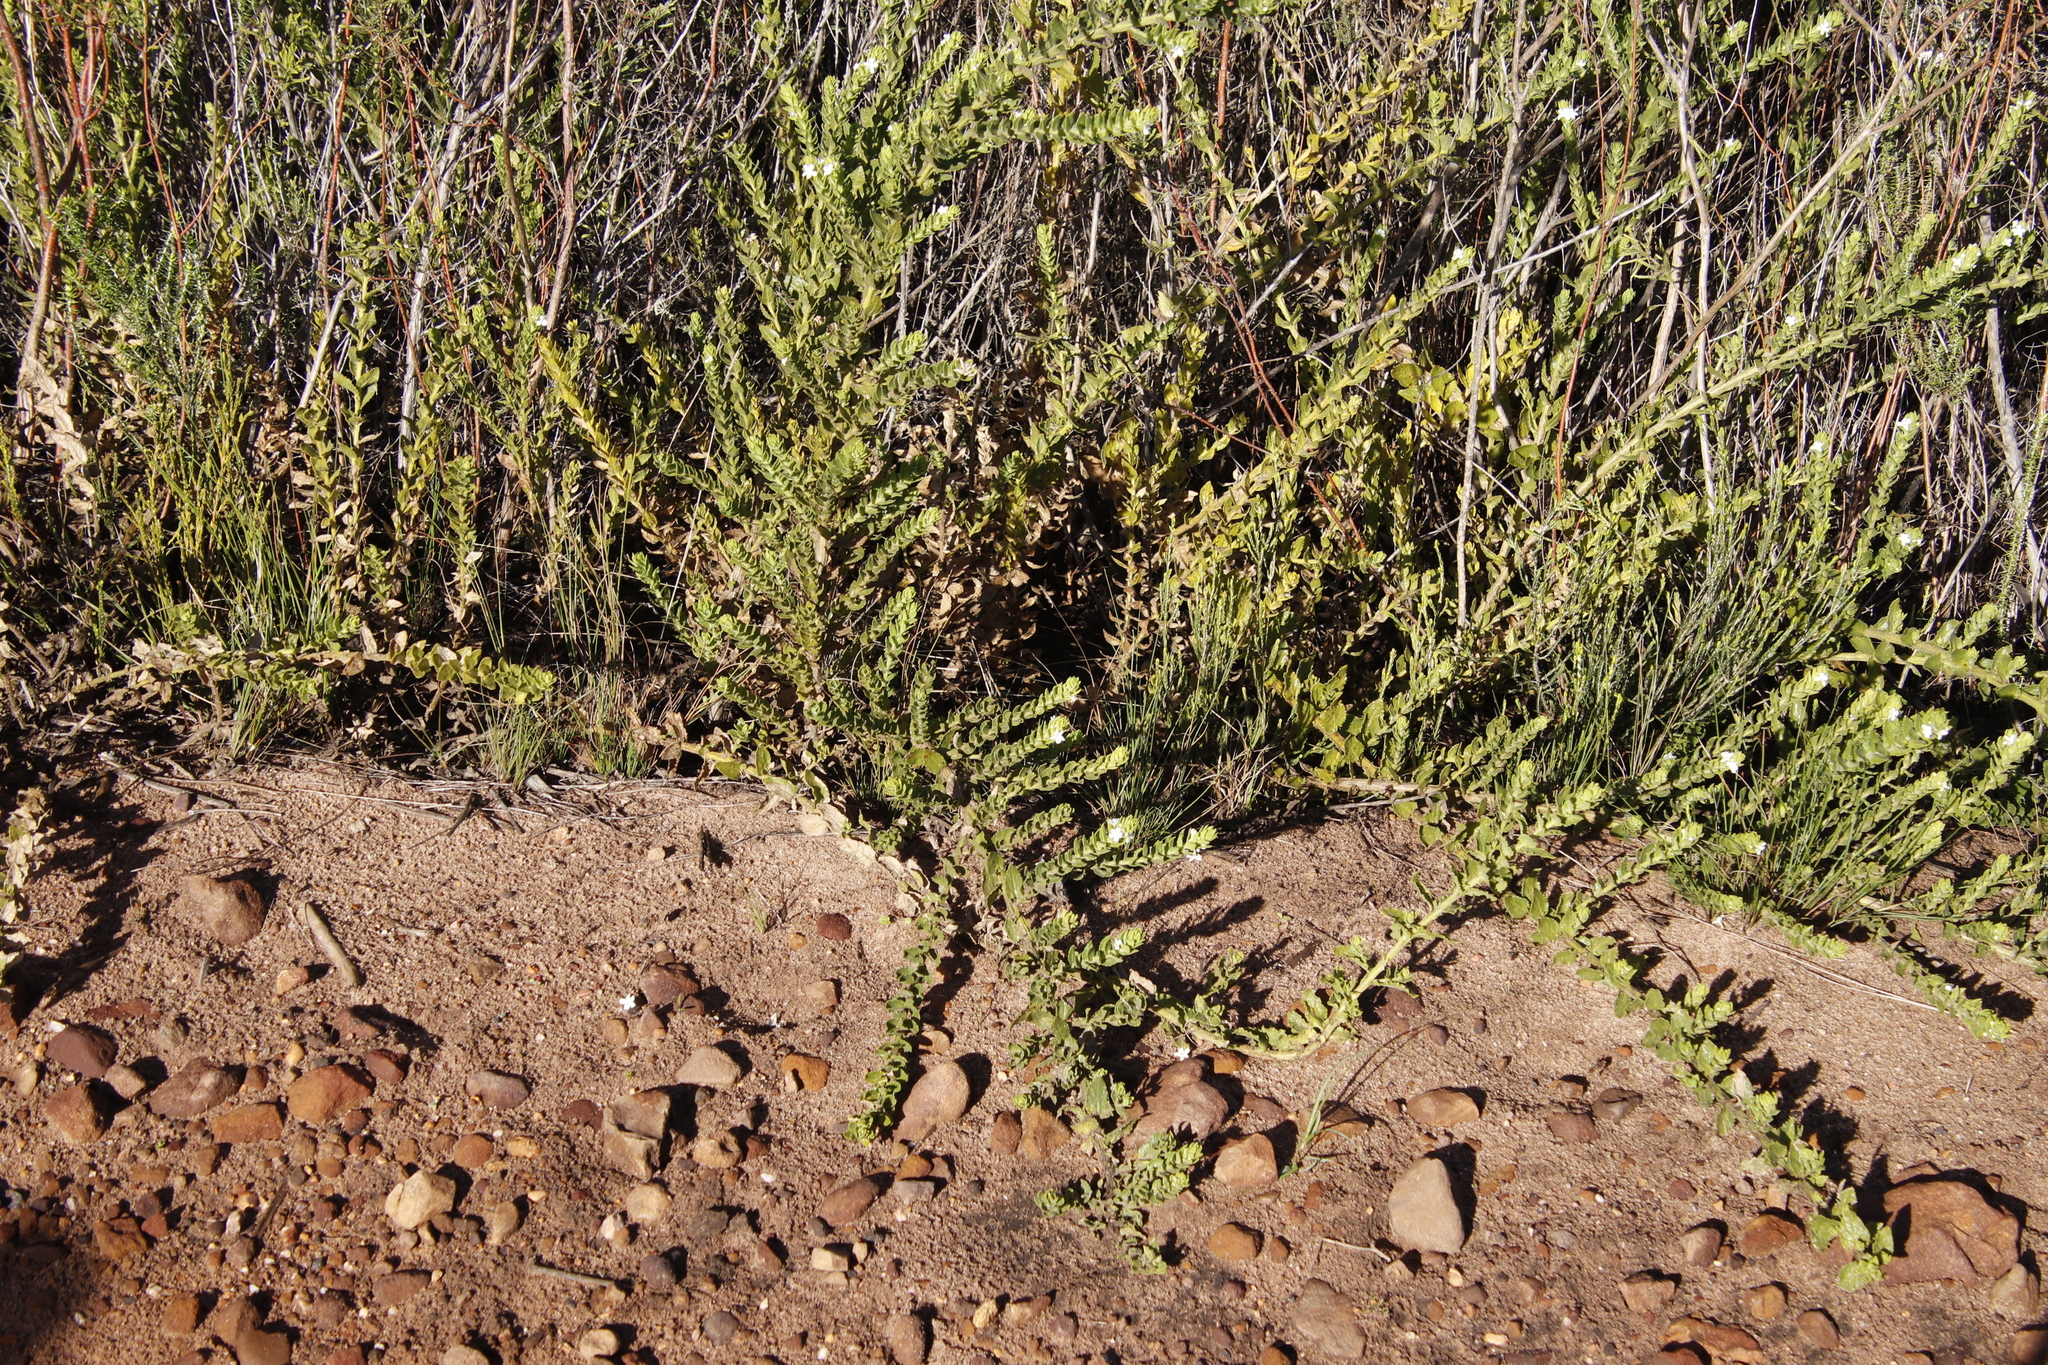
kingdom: Plantae
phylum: Tracheophyta
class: Magnoliopsida
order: Lamiales
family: Scrophulariaceae
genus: Oftia
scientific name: Oftia africana
